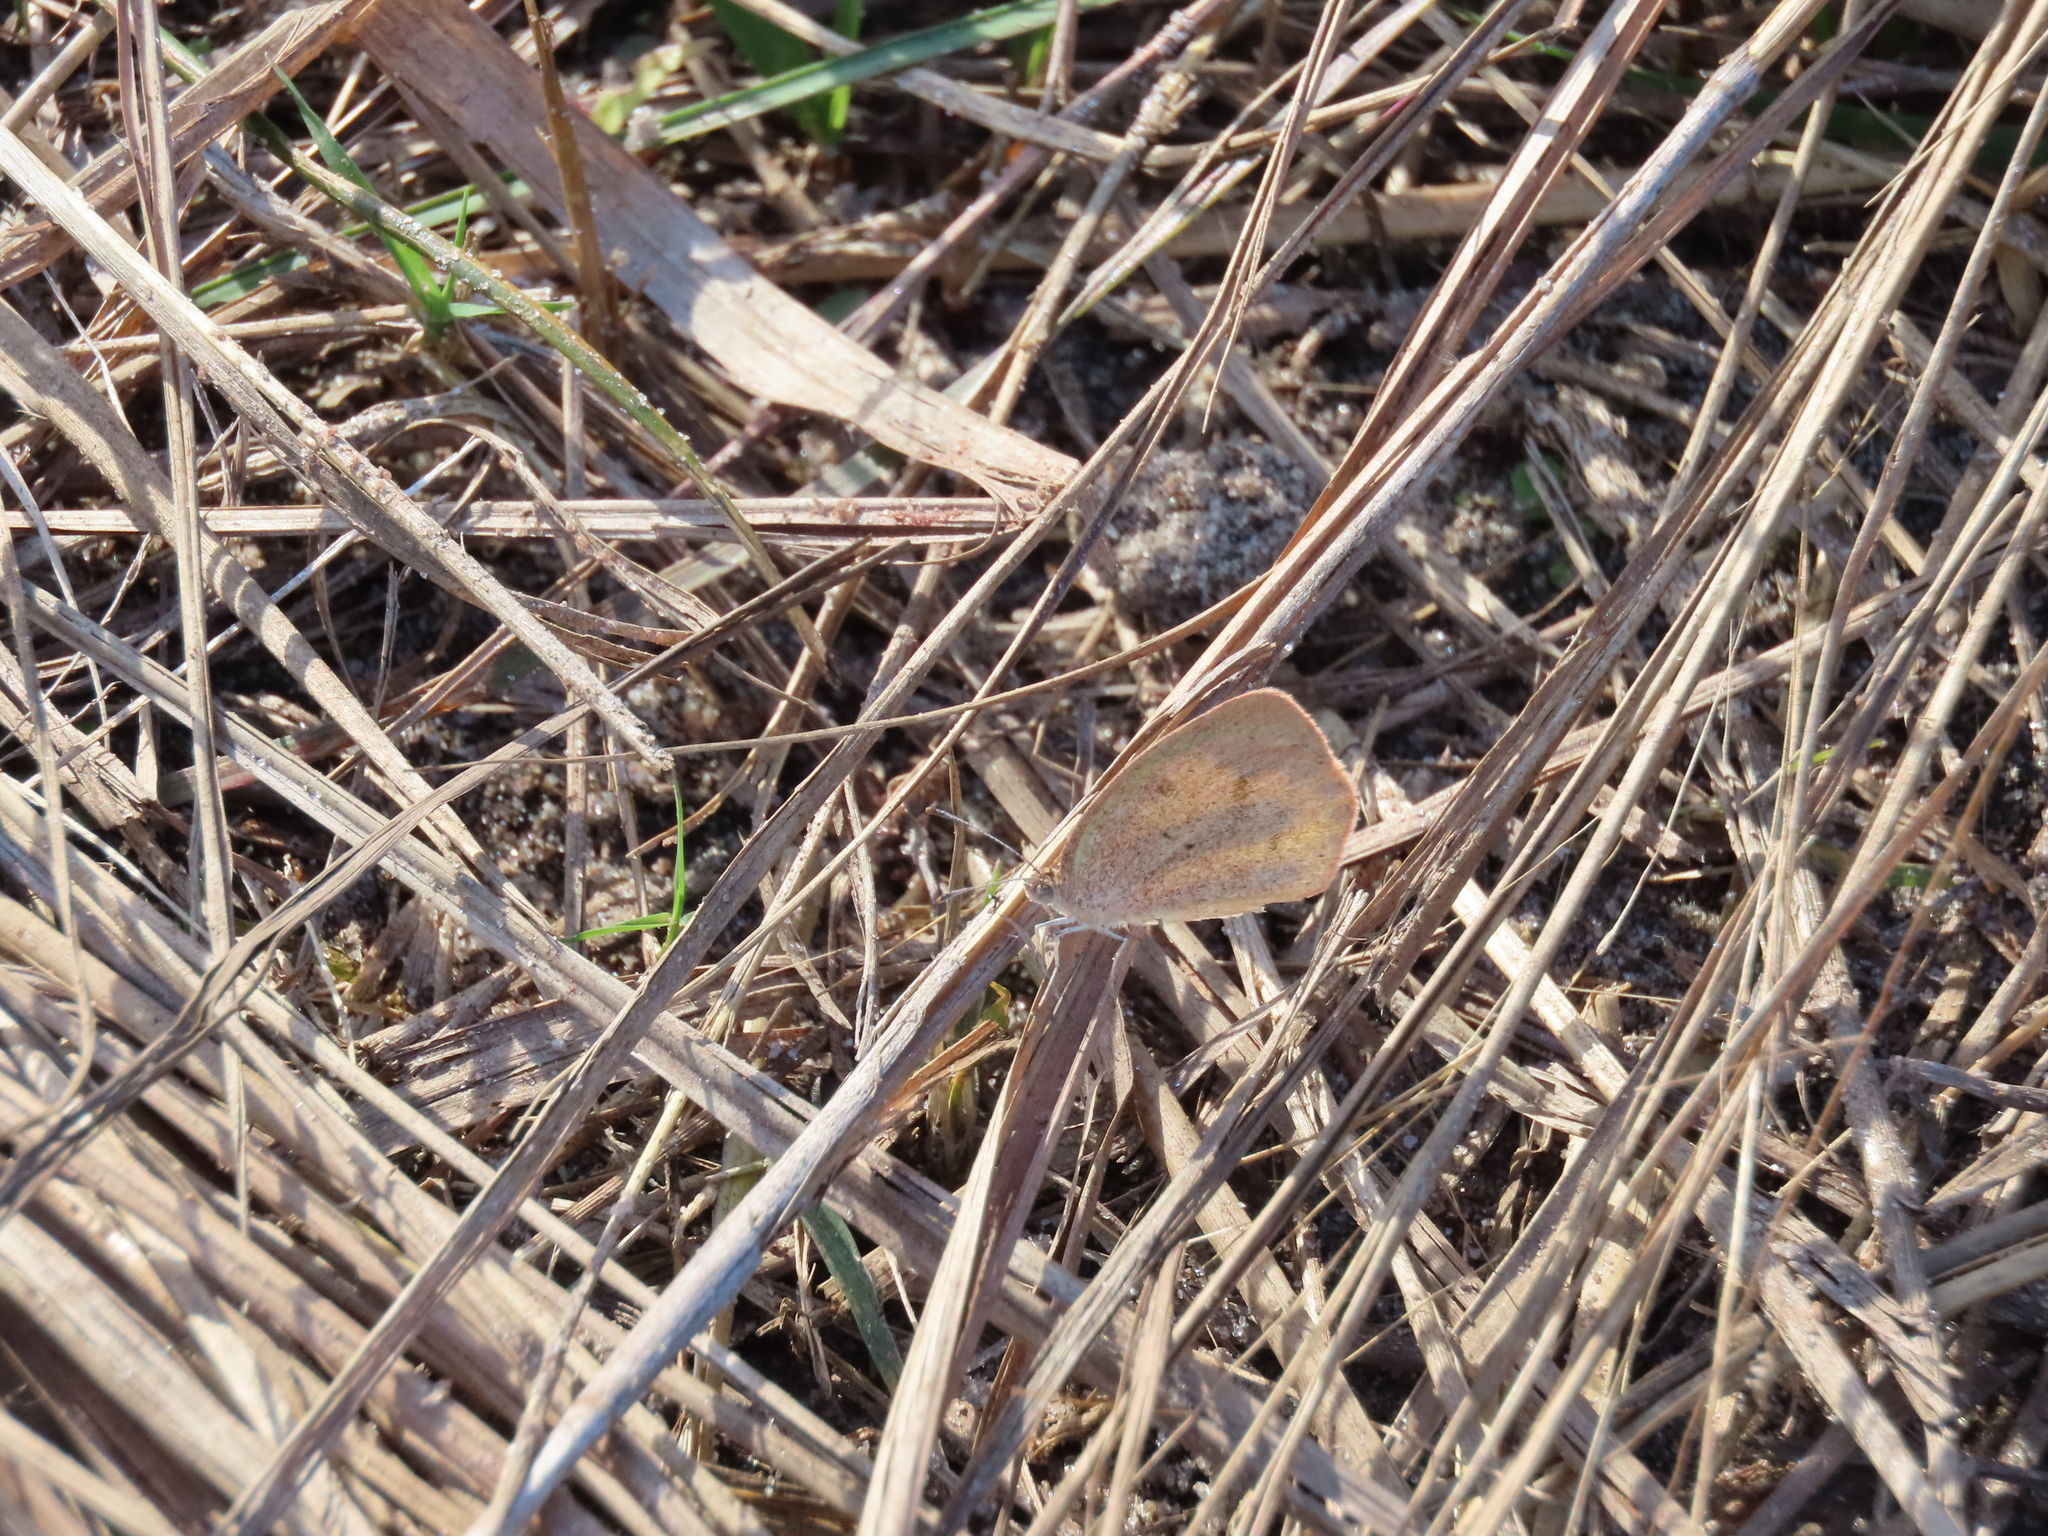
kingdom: Animalia
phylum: Arthropoda
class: Insecta
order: Lepidoptera
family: Pieridae
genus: Eurema
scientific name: Eurema daira
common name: Barred sulphur
